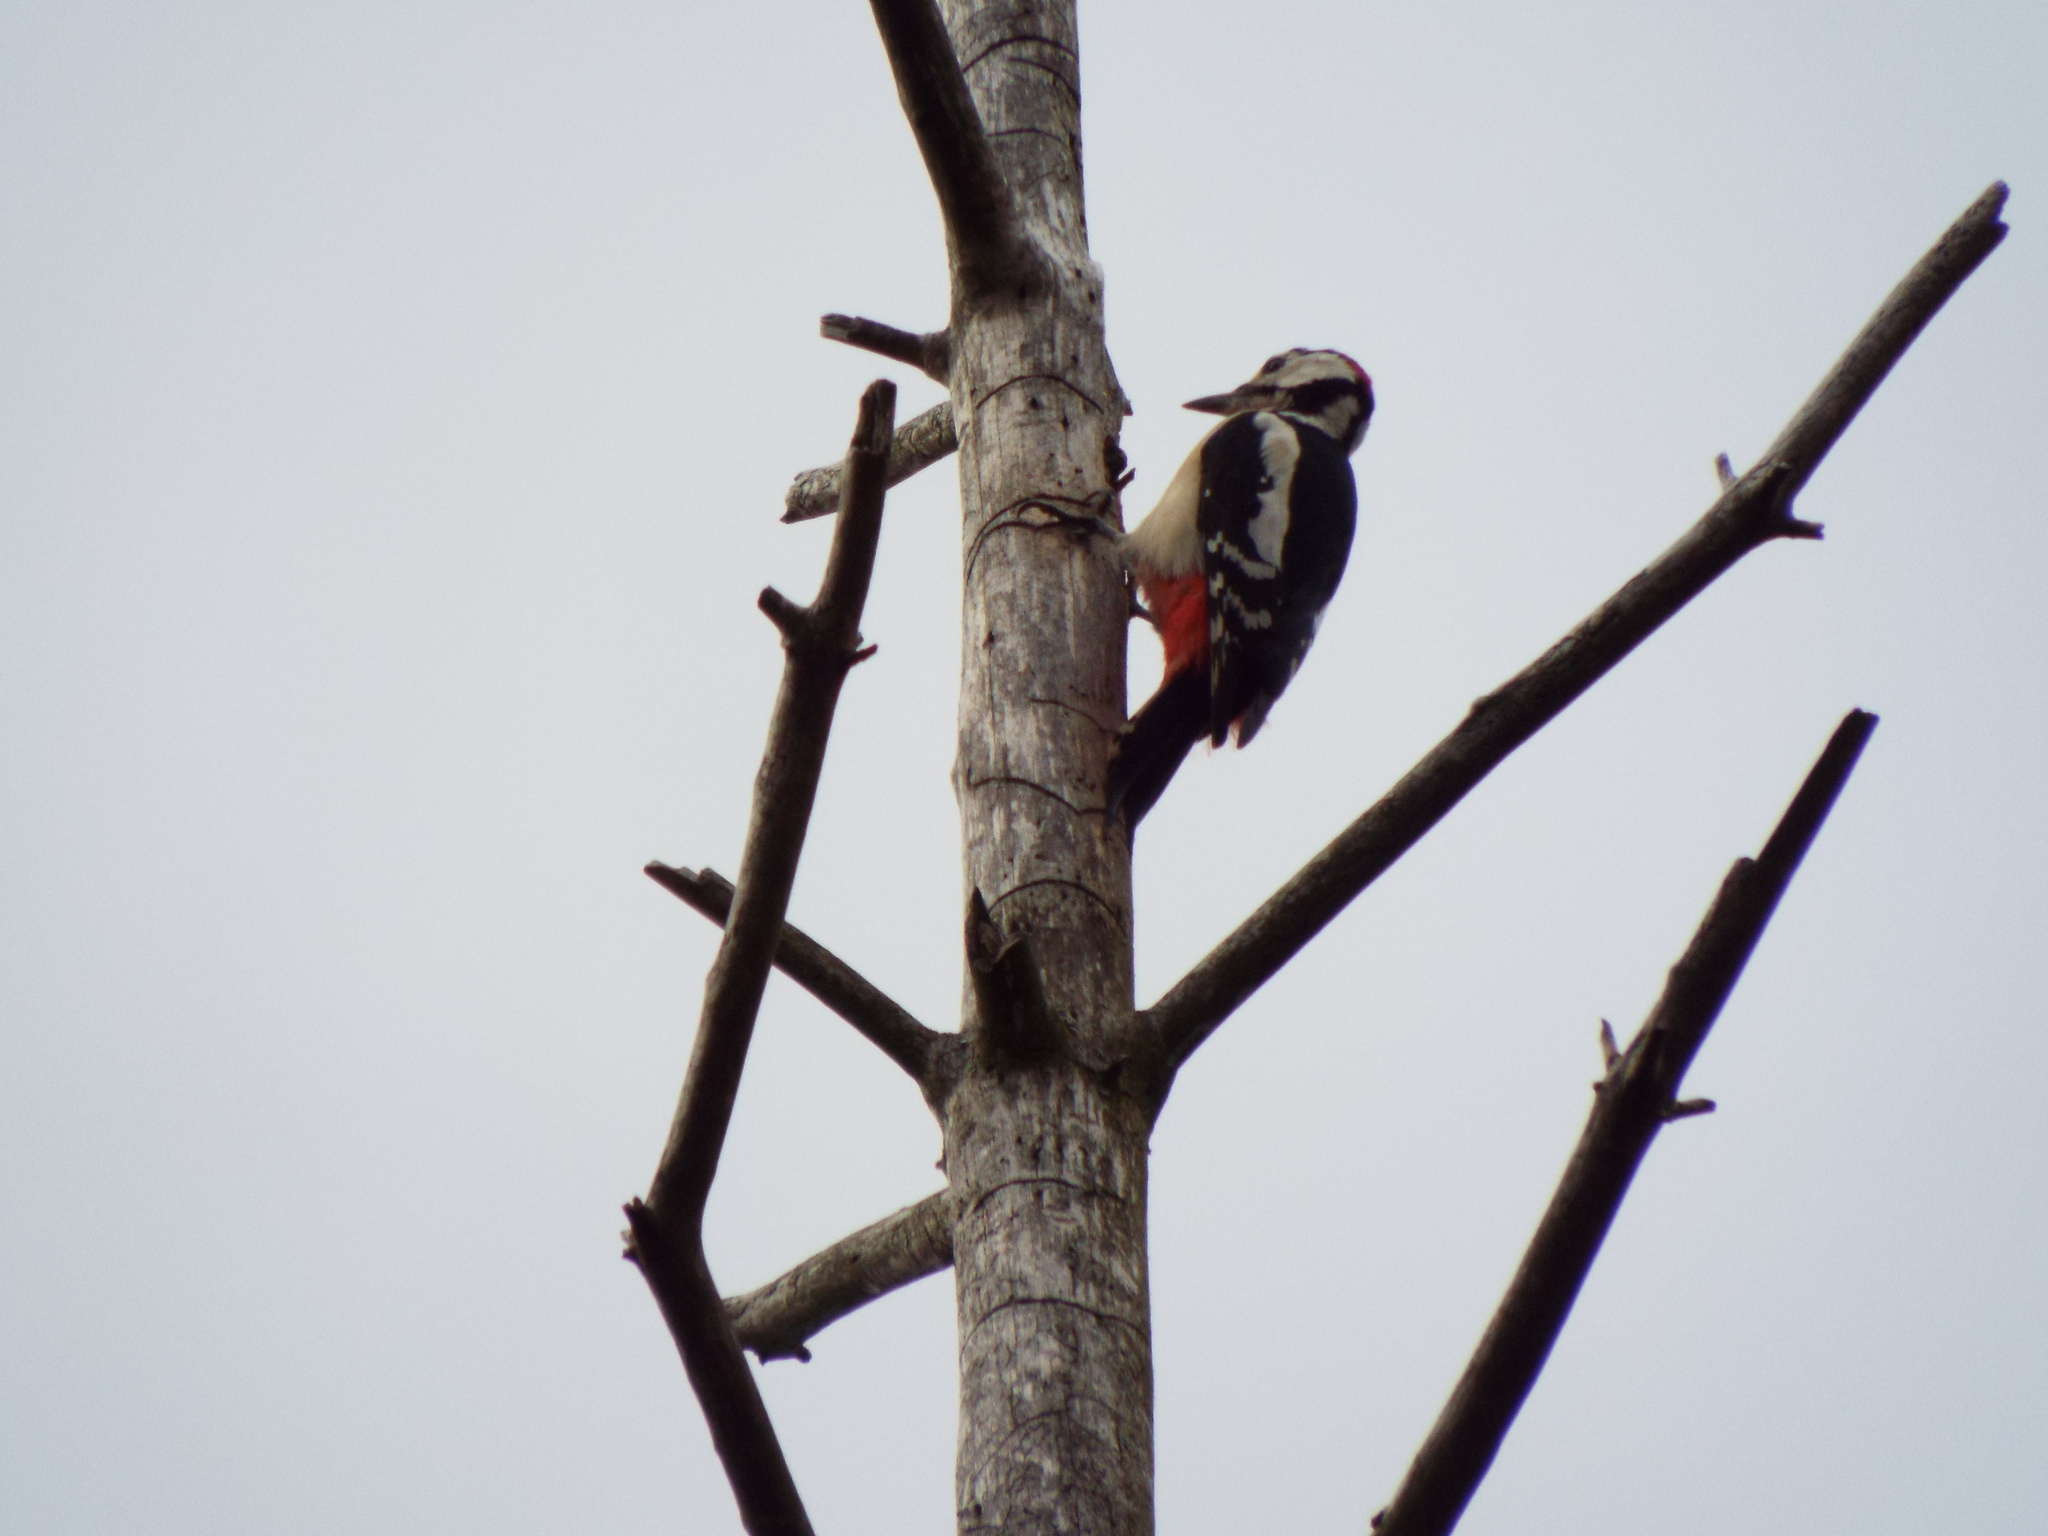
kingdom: Animalia
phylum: Chordata
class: Aves
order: Piciformes
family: Picidae
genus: Dendrocopos
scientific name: Dendrocopos major
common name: Great spotted woodpecker
